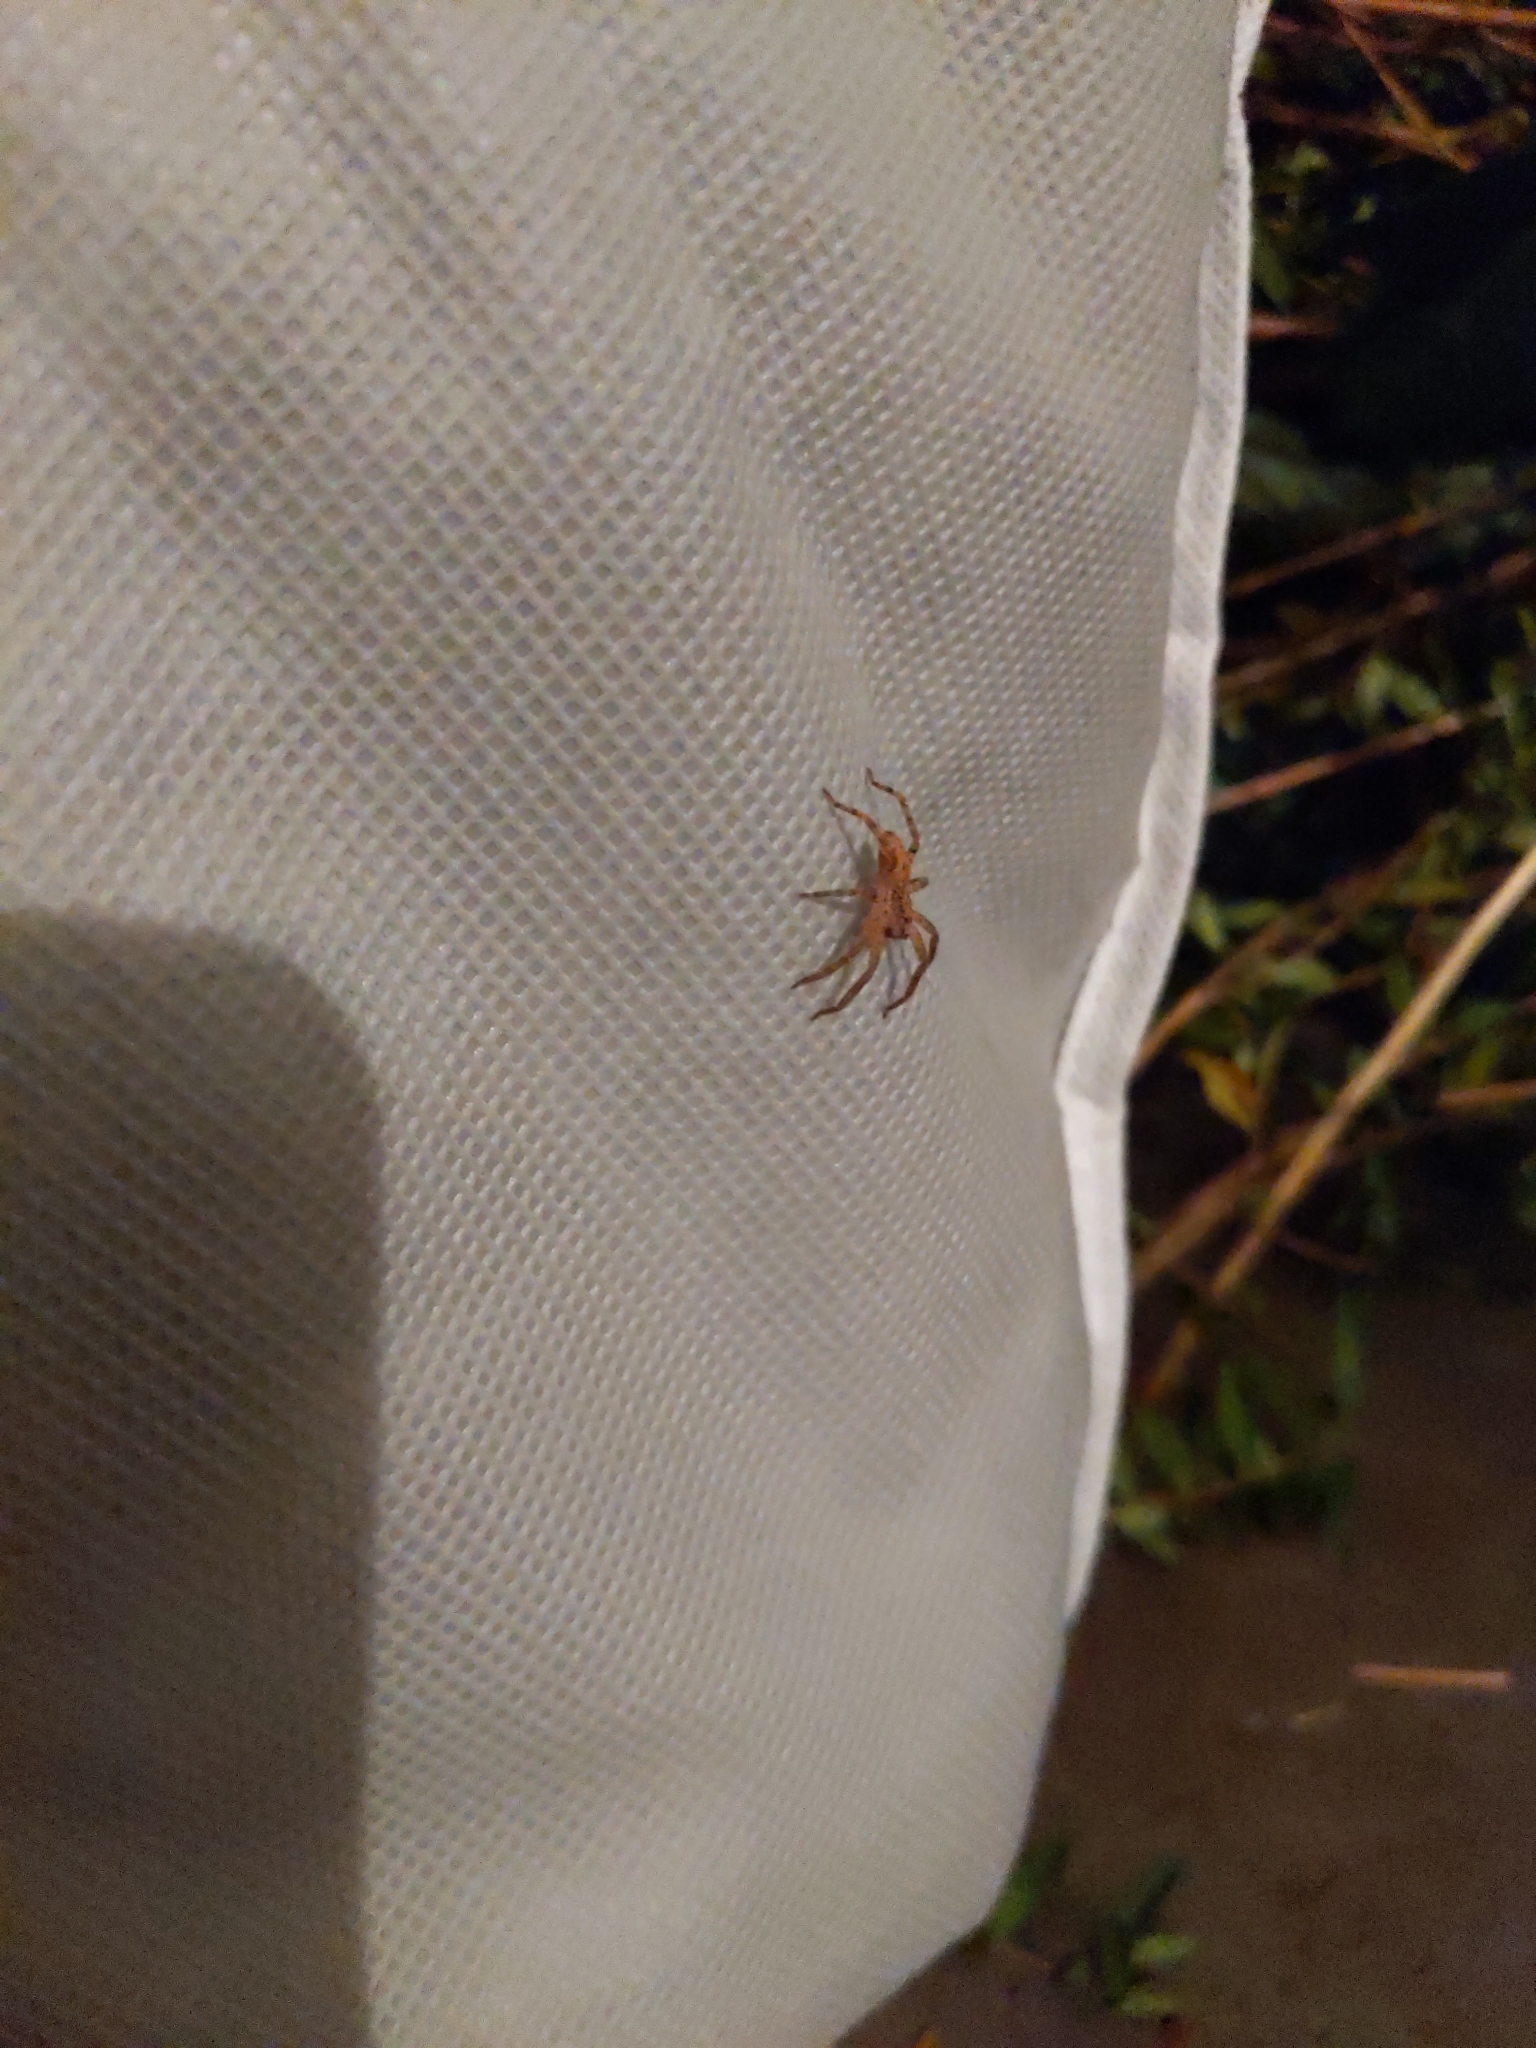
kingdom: Animalia
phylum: Arthropoda
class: Arachnida
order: Araneae
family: Zoropsidae
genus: Zoropsis
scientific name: Zoropsis spinimana
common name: Zoropsid spider
